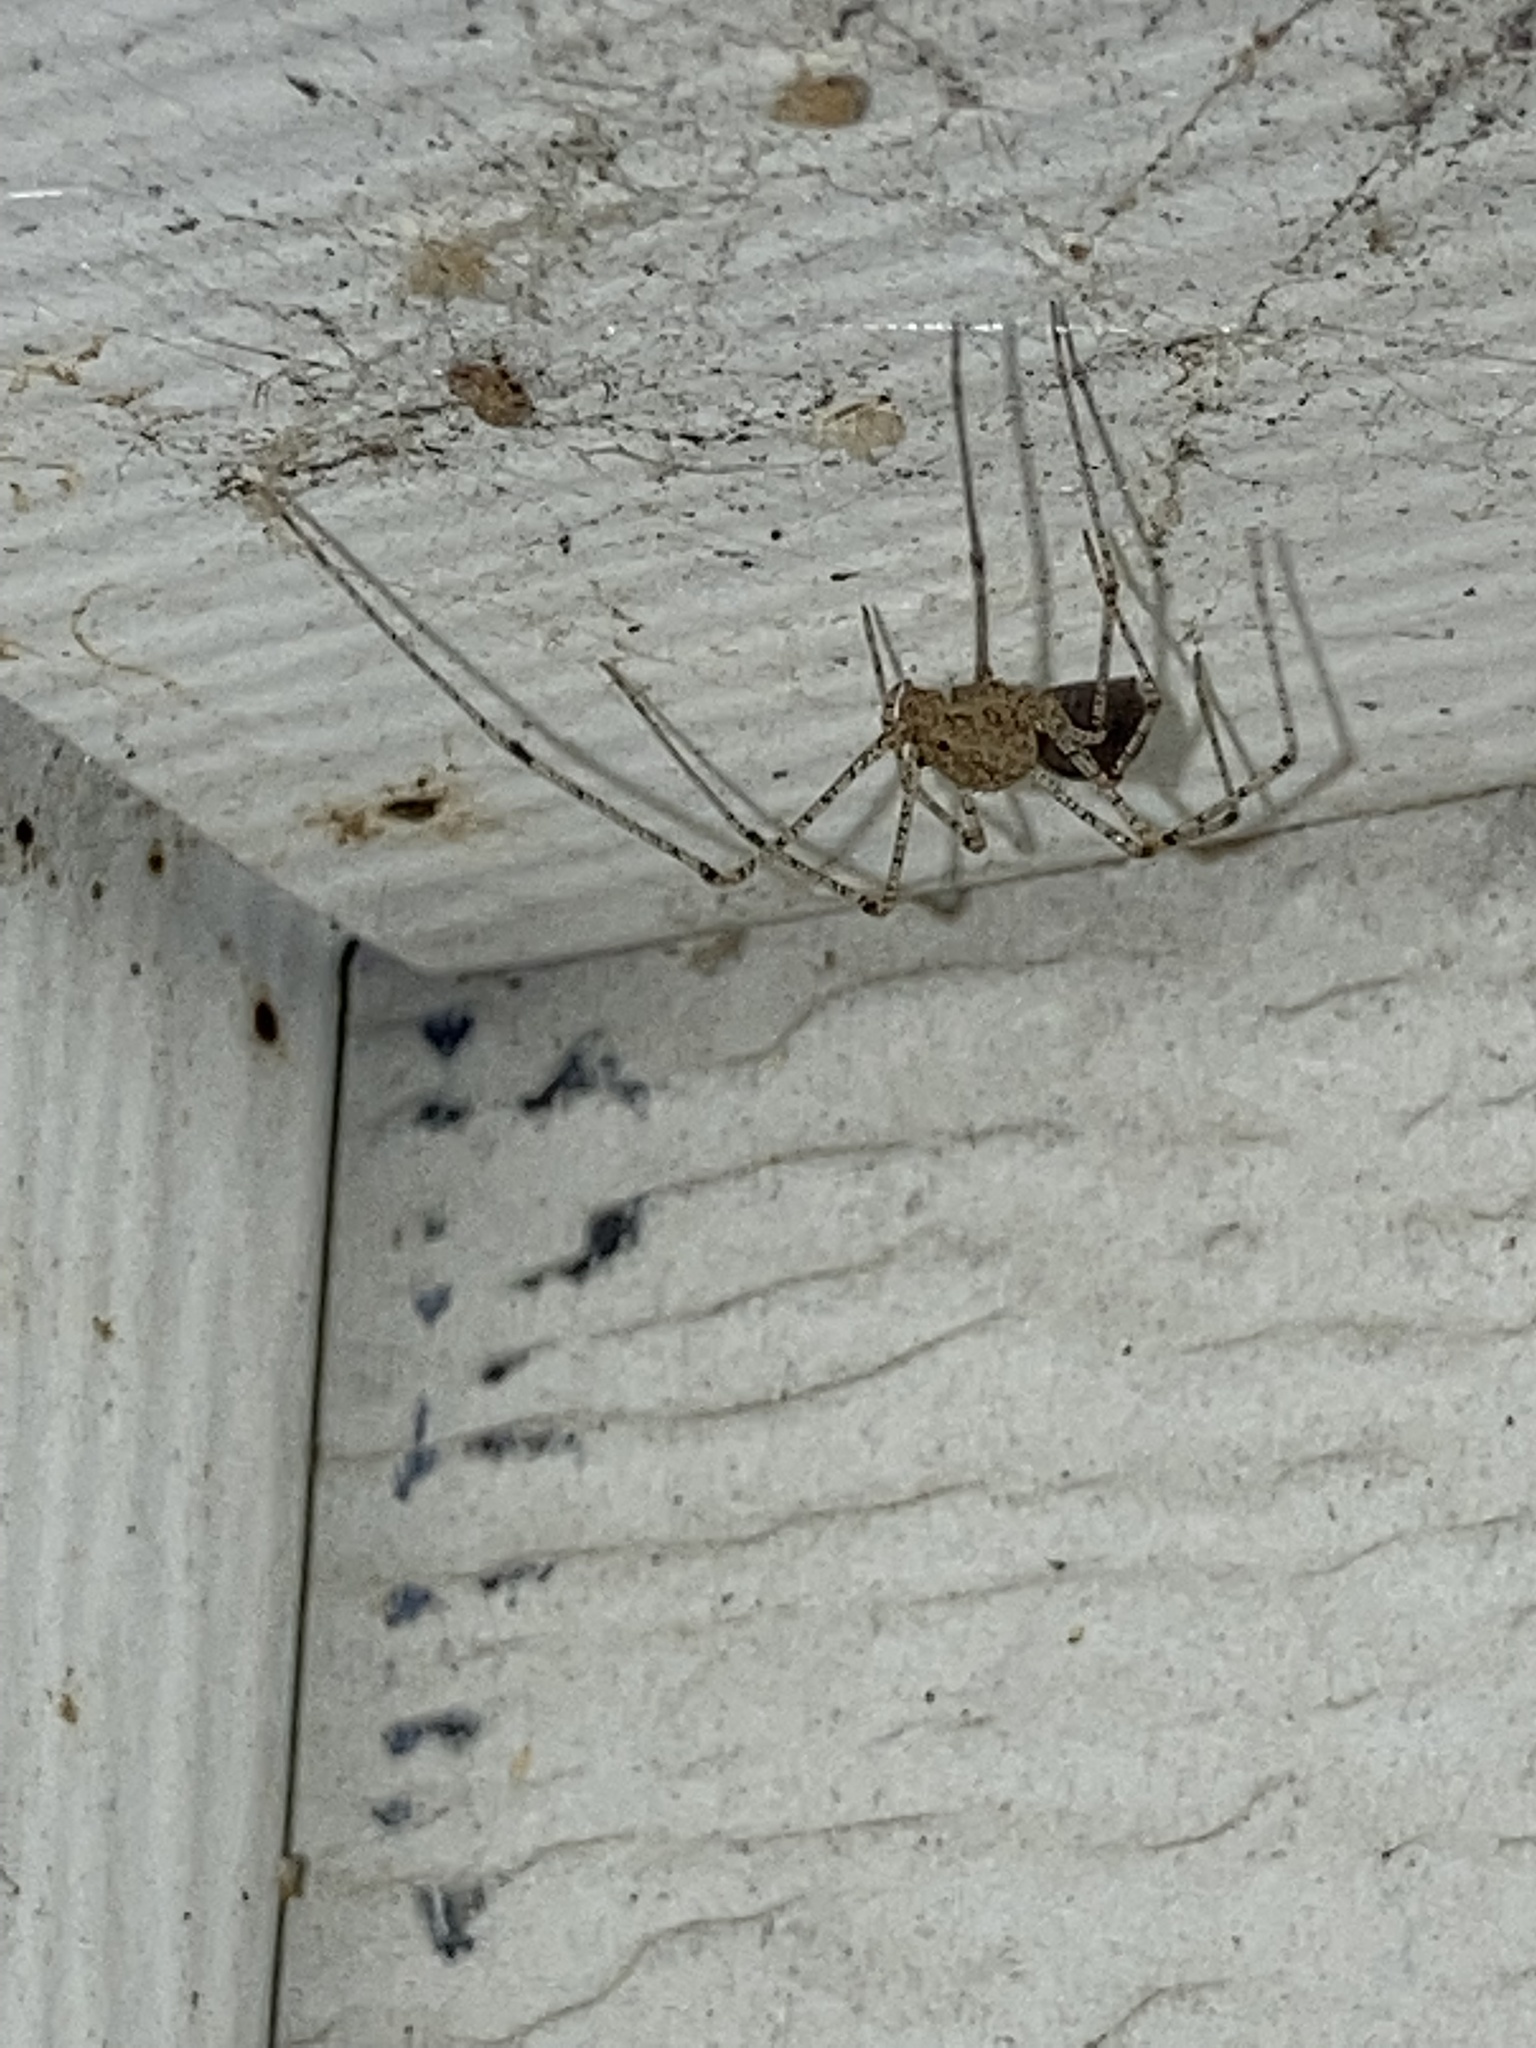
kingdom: Animalia
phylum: Arthropoda
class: Arachnida
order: Araneae
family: Scytodidae
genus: Scytodes
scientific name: Scytodes atlacoya
